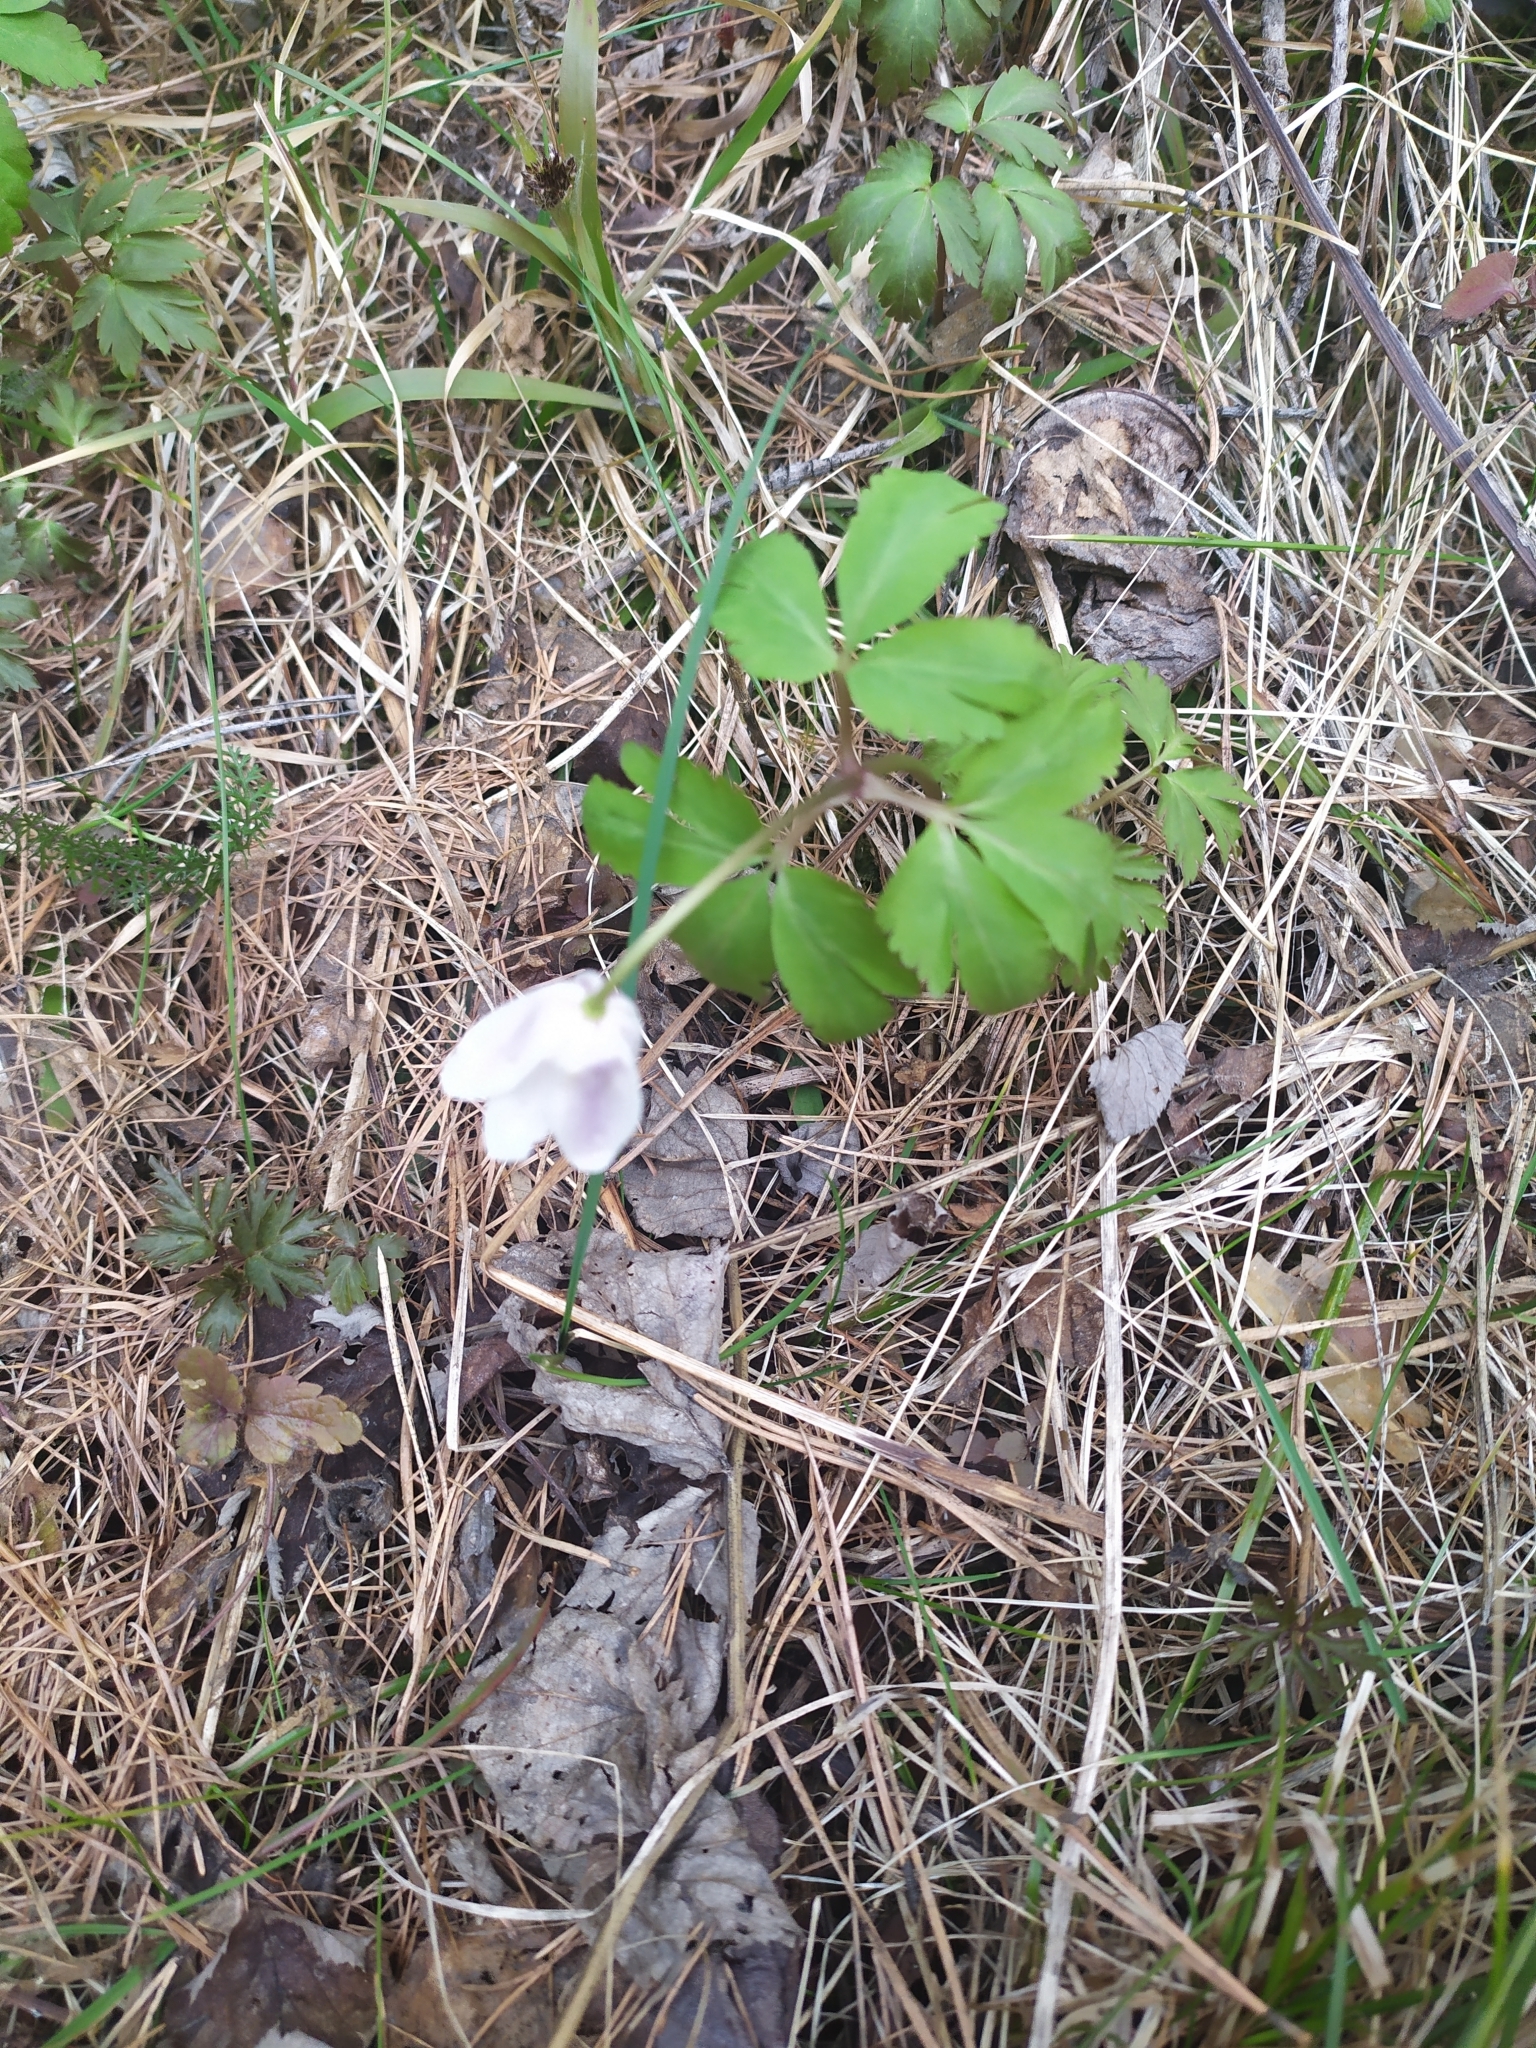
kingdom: Plantae
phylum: Tracheophyta
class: Magnoliopsida
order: Ranunculales
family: Ranunculaceae
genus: Anemone
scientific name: Anemone altaica
